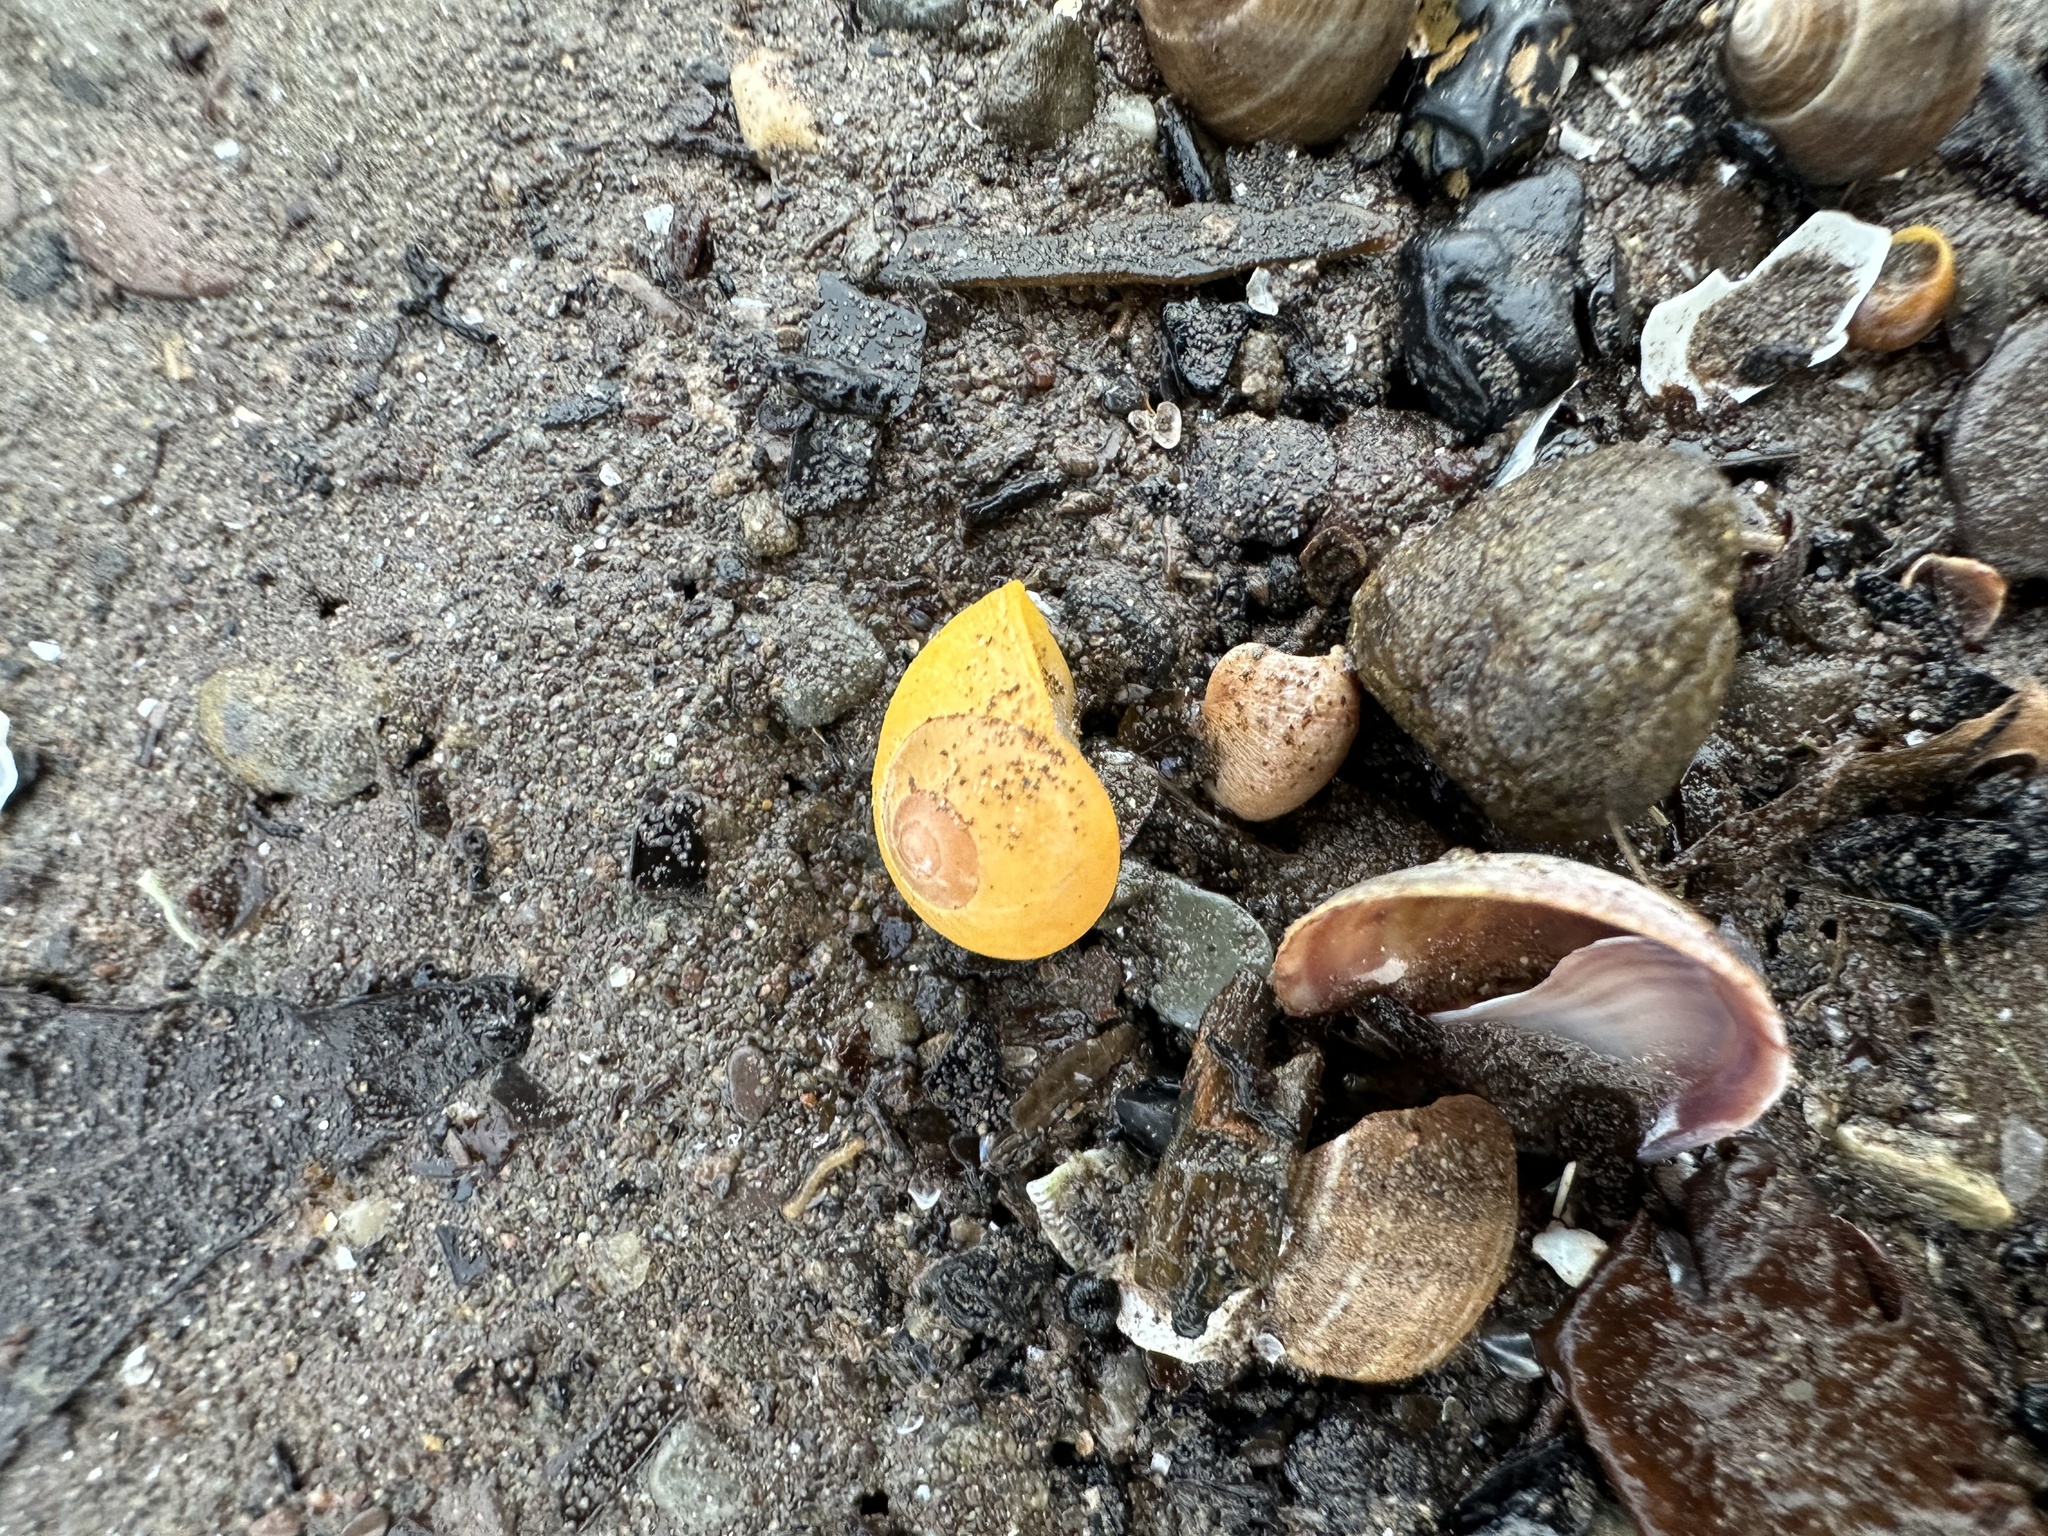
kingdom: Animalia
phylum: Mollusca
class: Gastropoda
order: Littorinimorpha
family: Littorinidae
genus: Littorina
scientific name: Littorina obtusata
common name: Flat periwinkle
